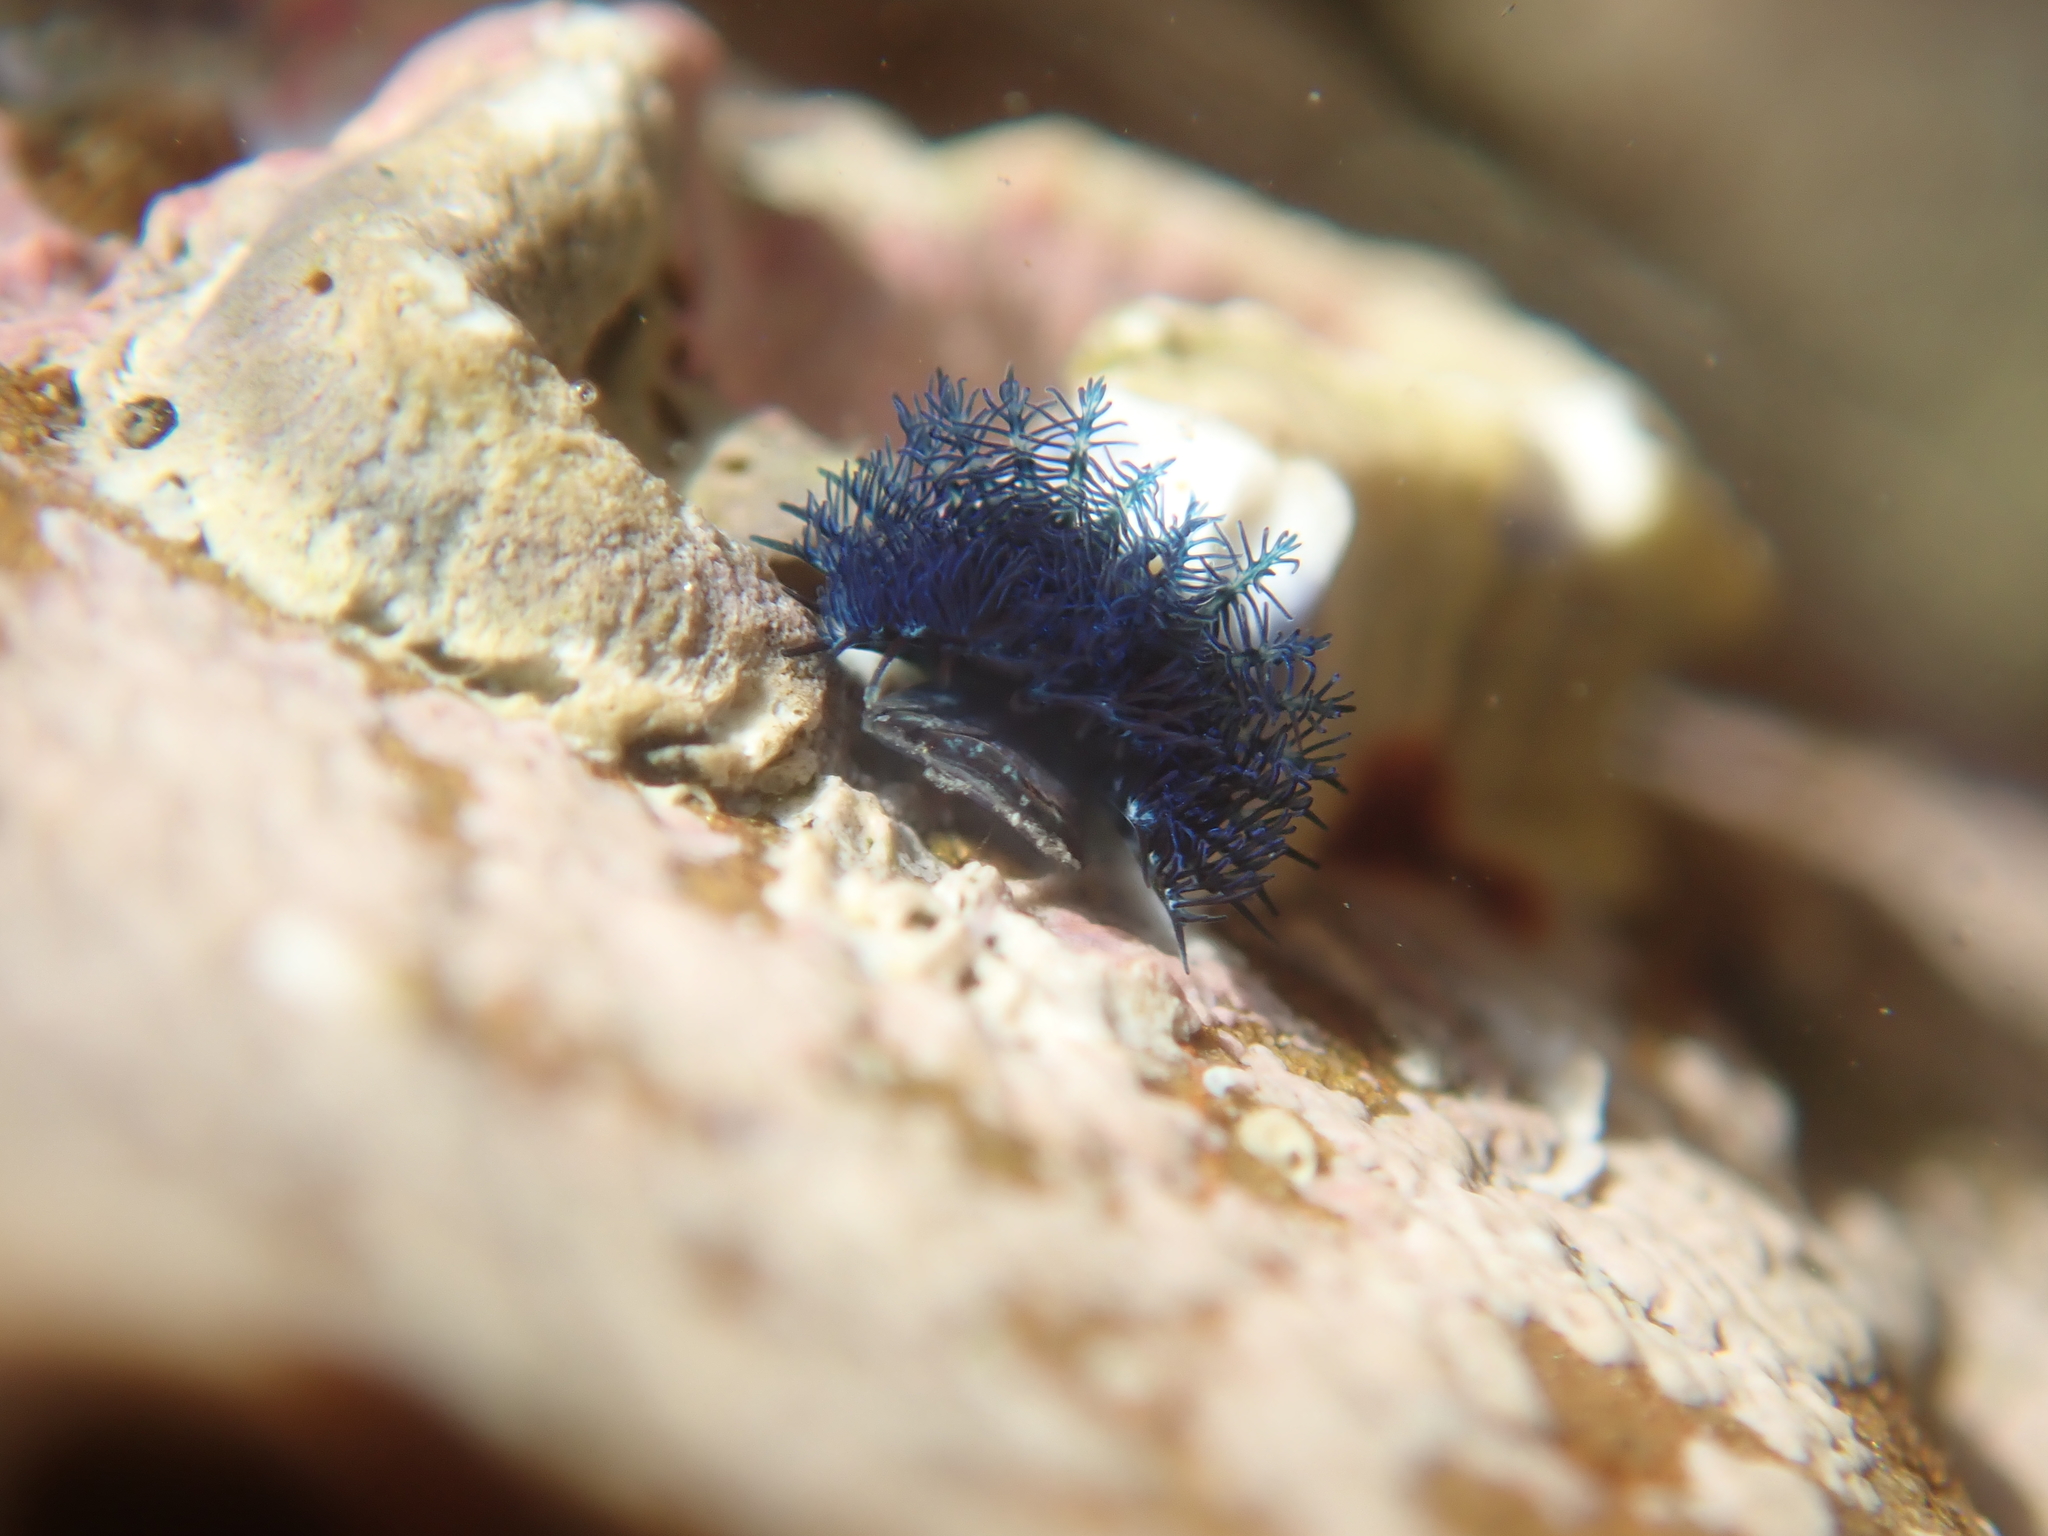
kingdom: Animalia
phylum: Annelida
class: Polychaeta
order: Sabellida
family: Serpulidae
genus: Spirobranchus
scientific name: Spirobranchus cariniferus
